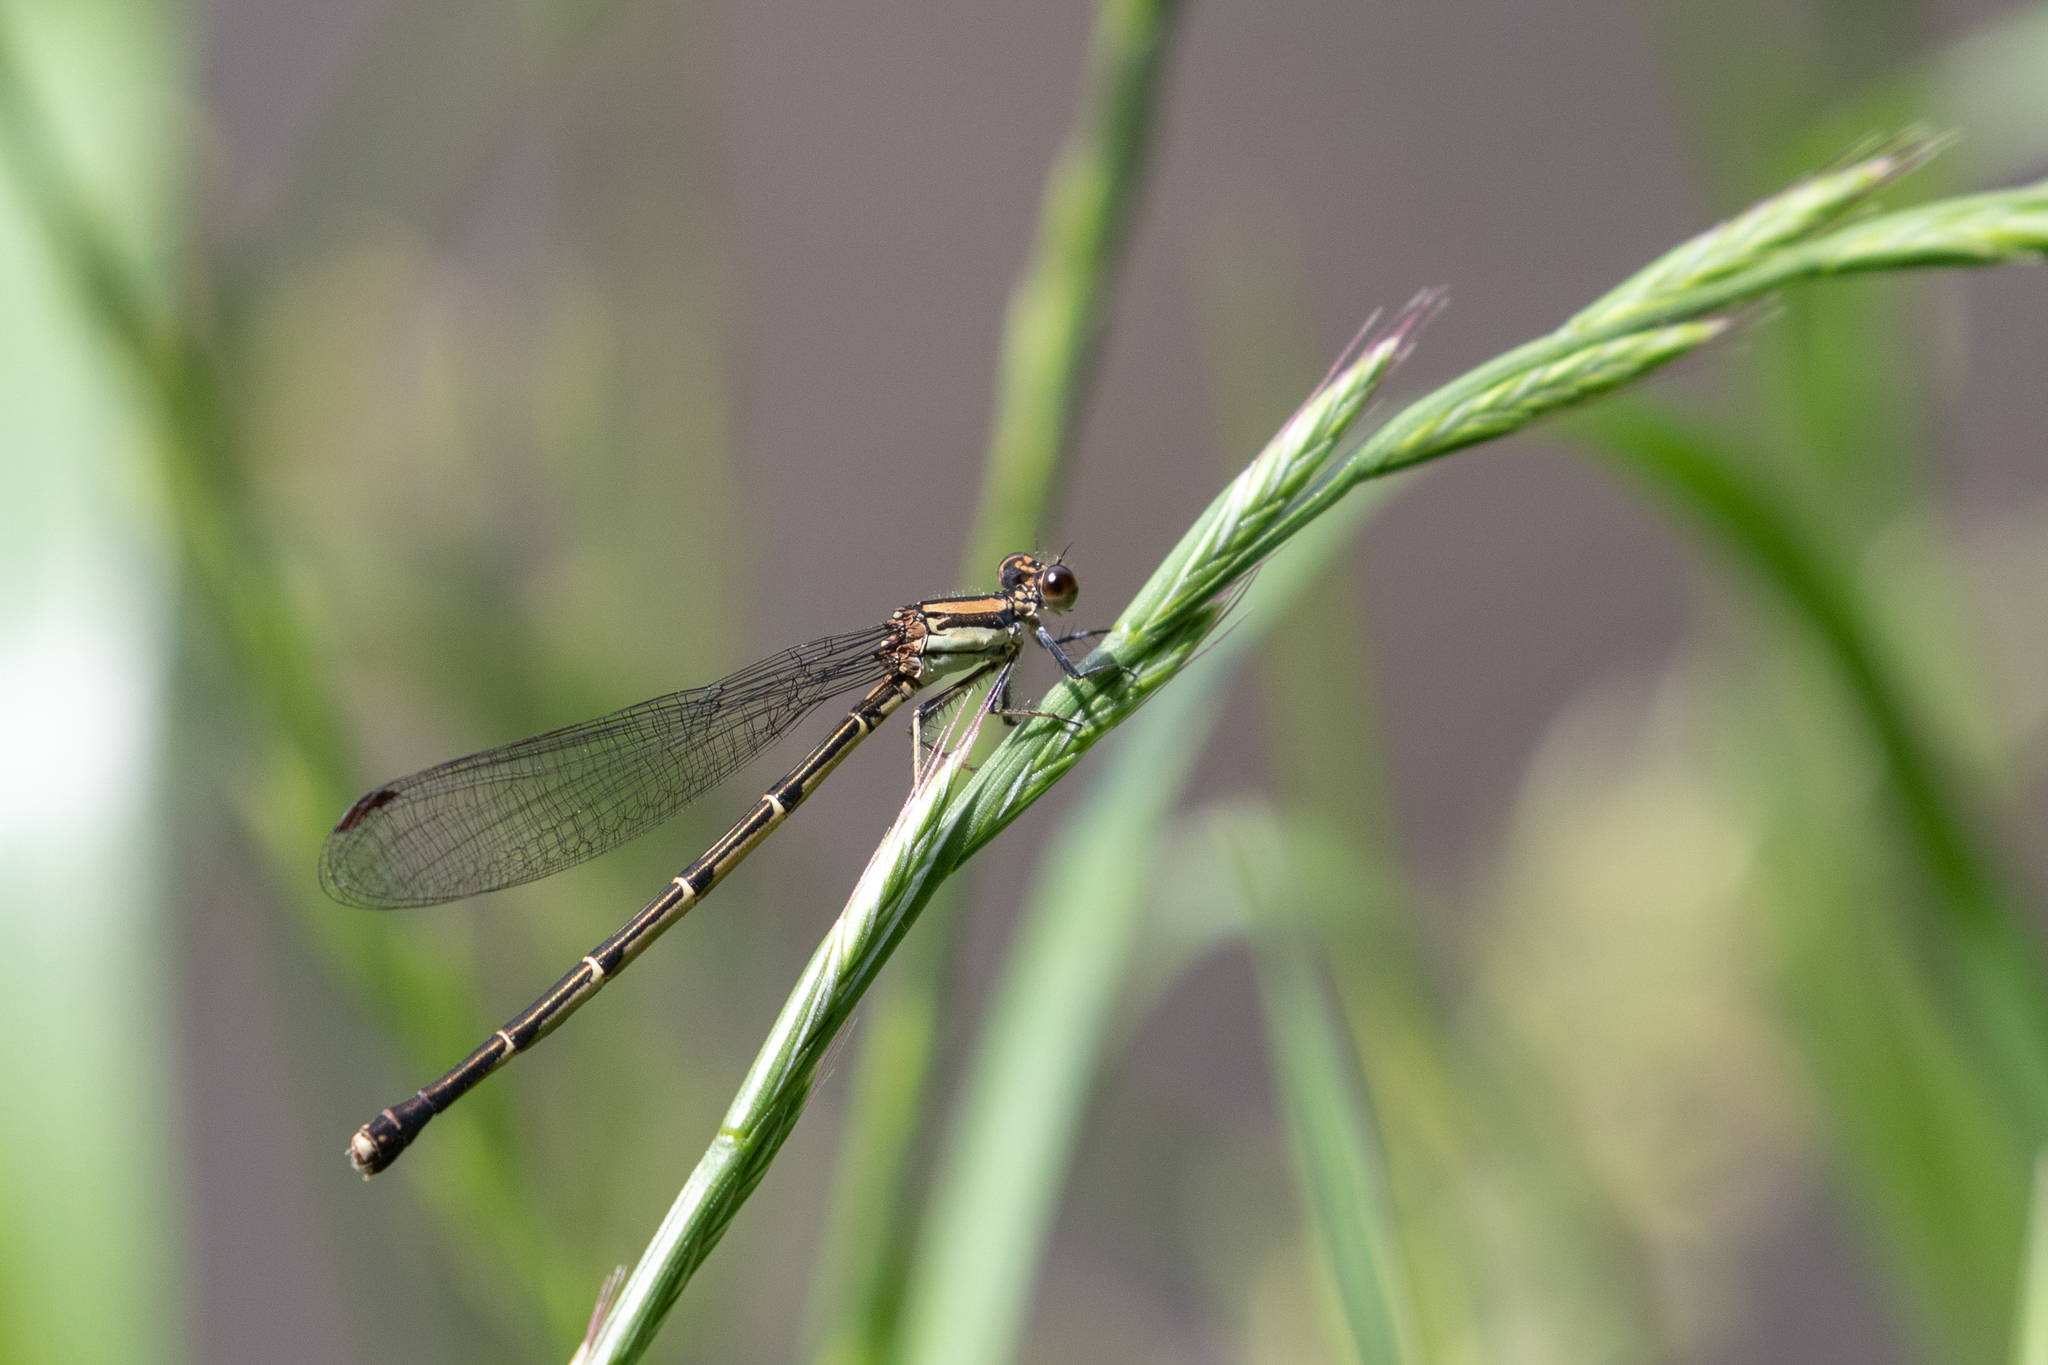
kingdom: Animalia
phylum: Arthropoda
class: Insecta
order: Odonata
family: Coenagrionidae
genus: Argia
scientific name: Argia tibialis
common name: Blue-tipped dancer
